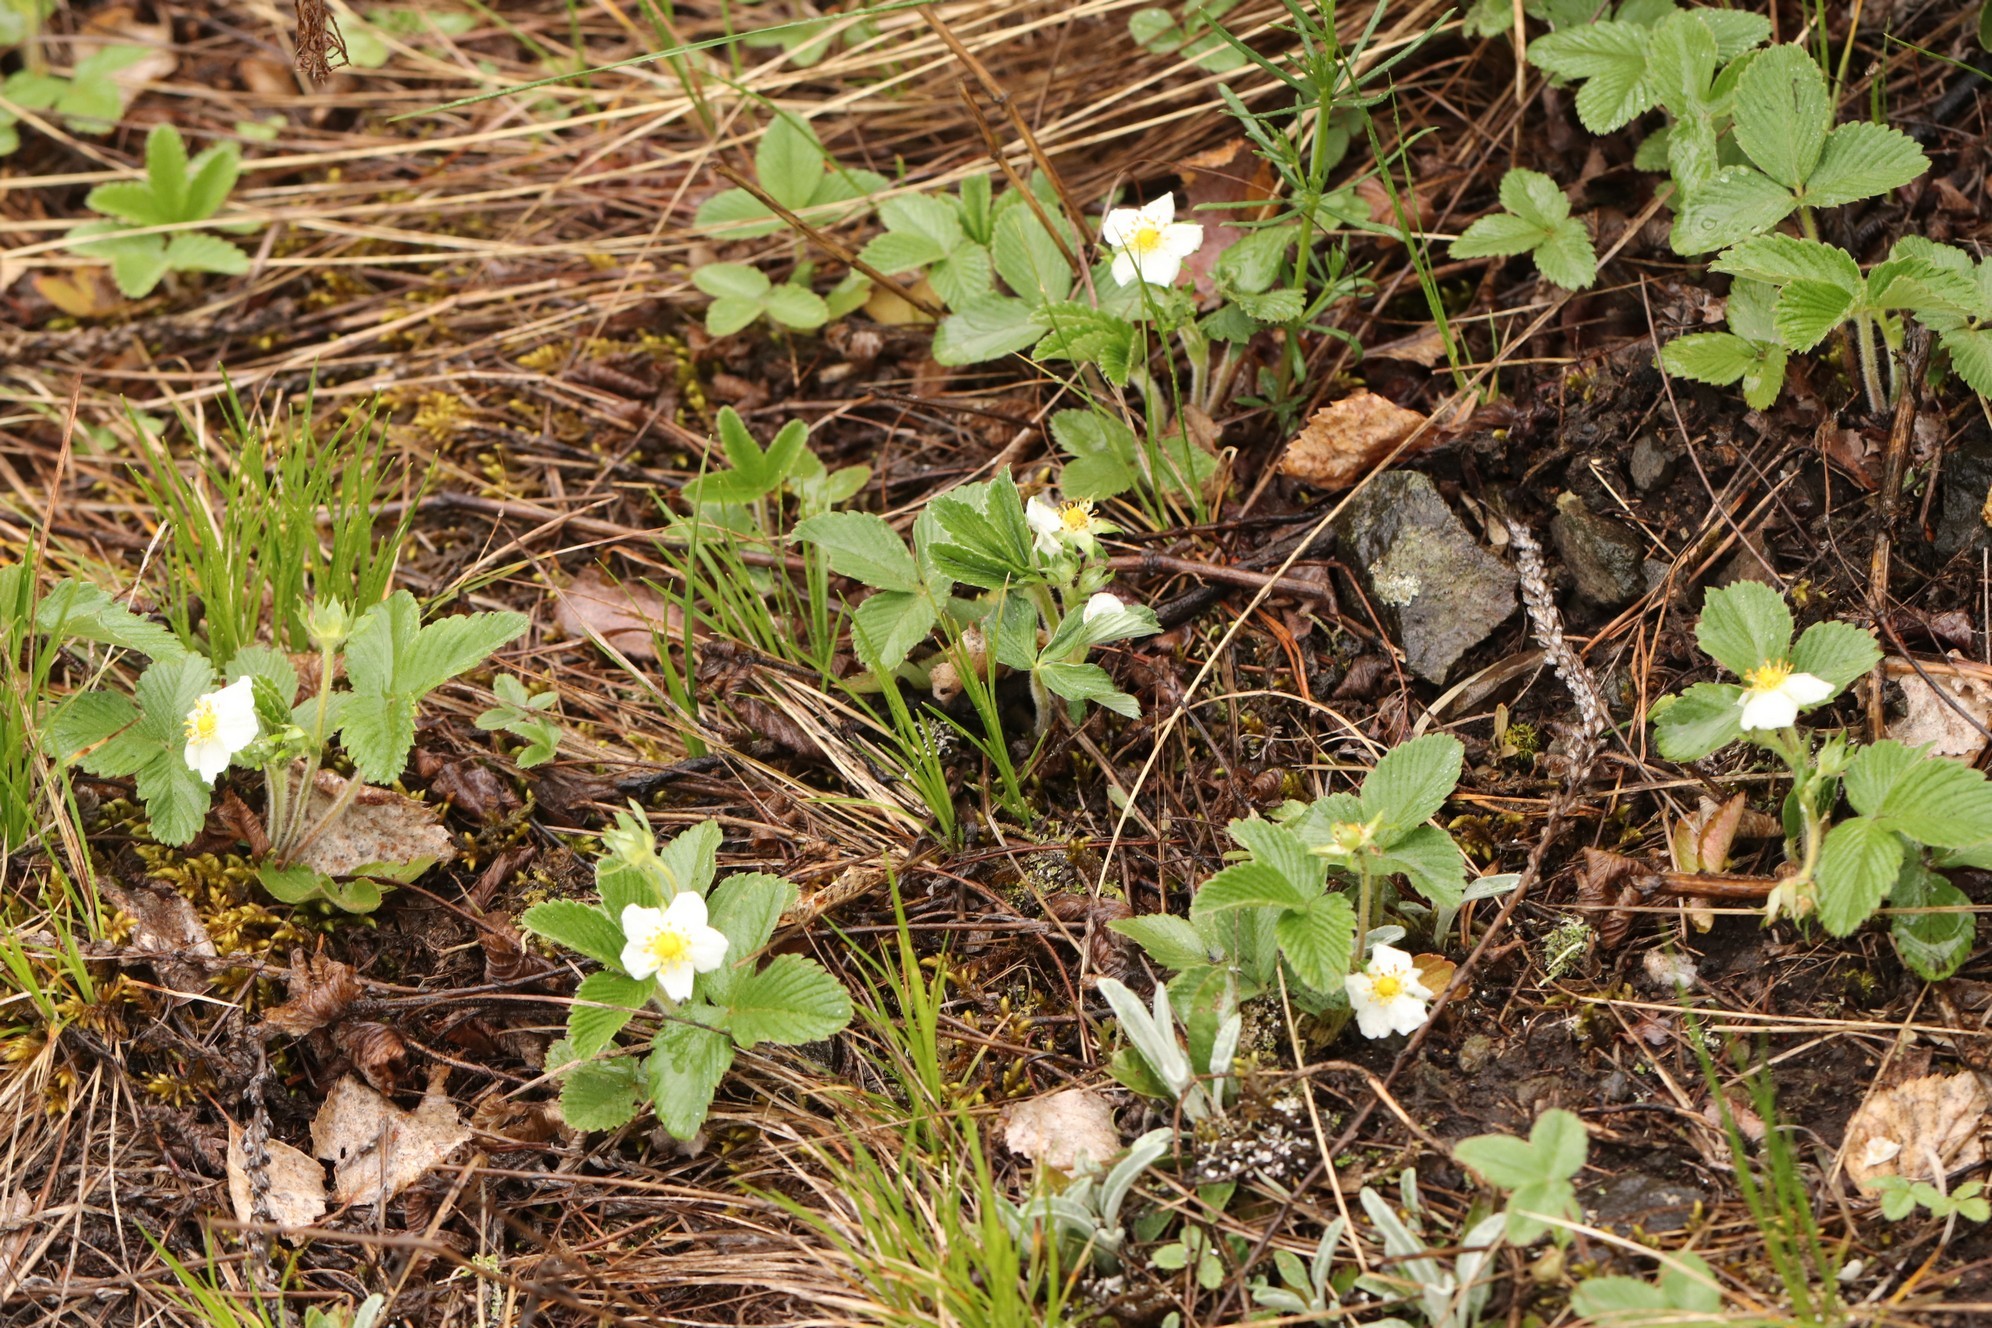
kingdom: Plantae
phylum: Tracheophyta
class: Magnoliopsida
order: Rosales
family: Rosaceae
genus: Fragaria
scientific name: Fragaria viridis
